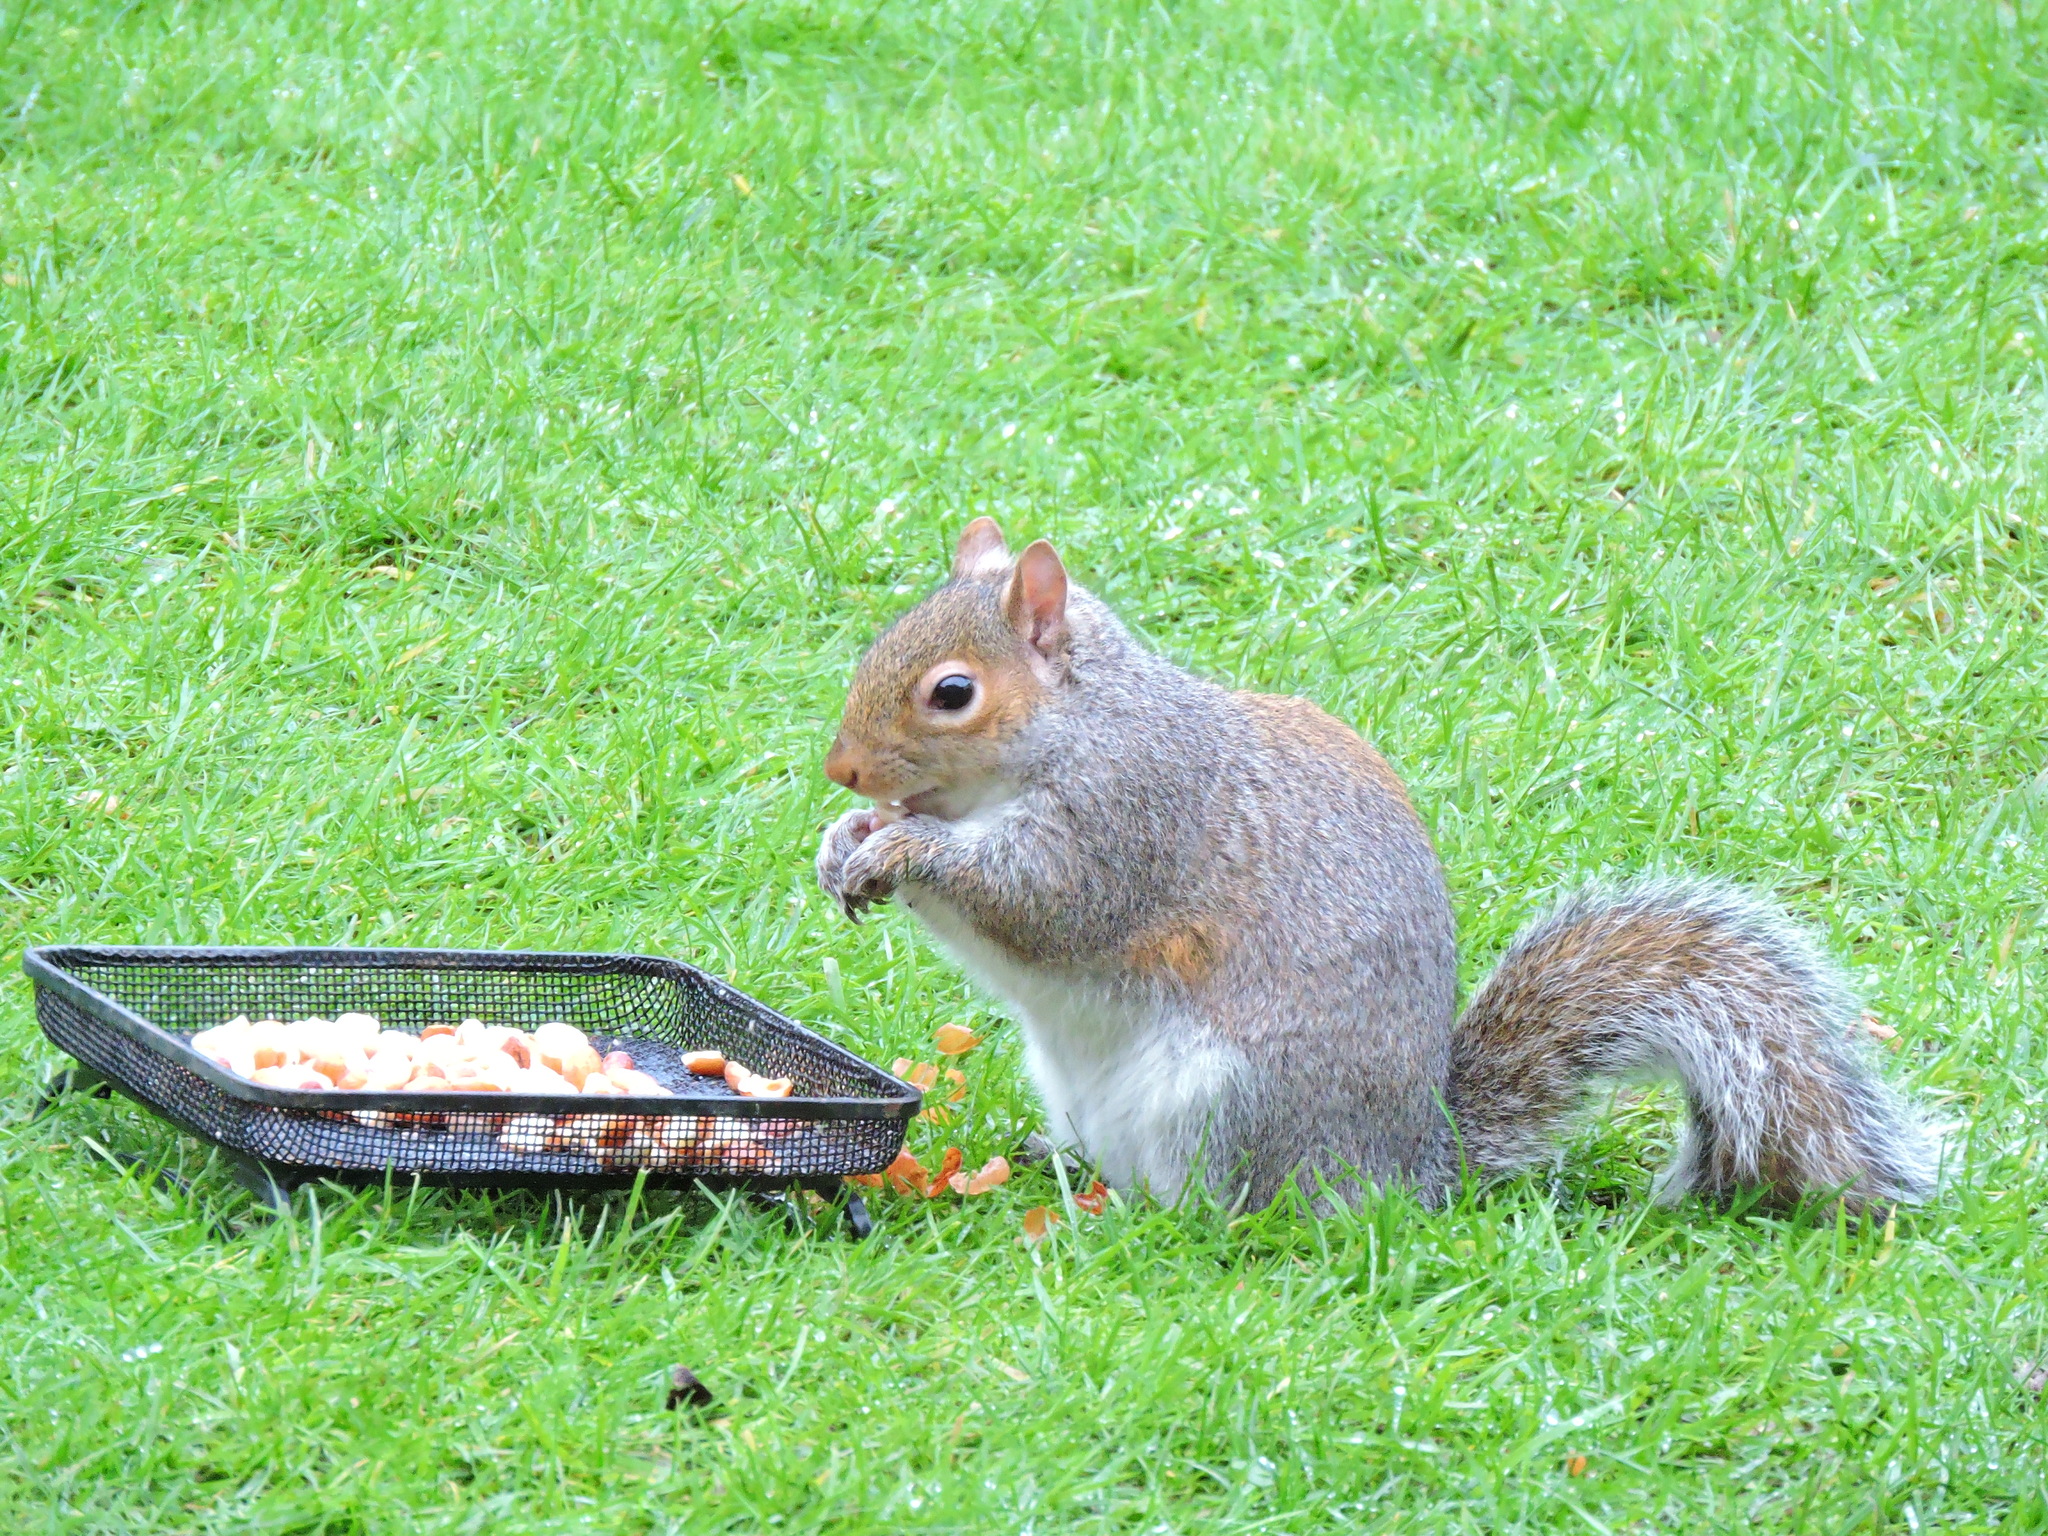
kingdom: Animalia
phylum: Chordata
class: Mammalia
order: Rodentia
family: Sciuridae
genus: Sciurus
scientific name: Sciurus carolinensis
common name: Eastern gray squirrel
